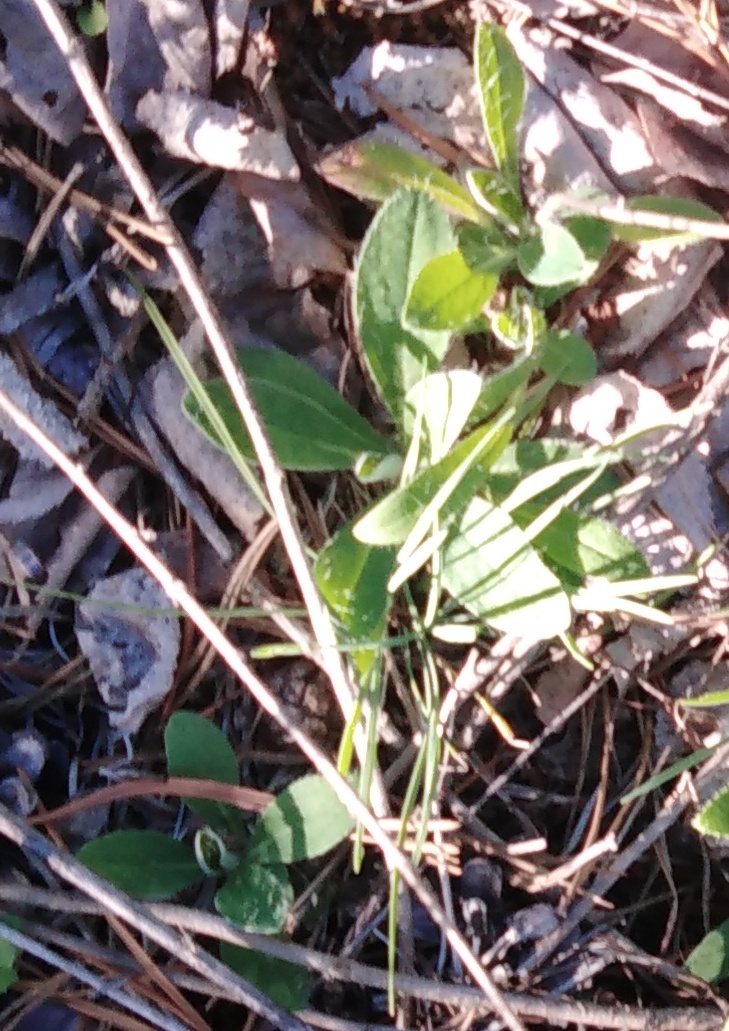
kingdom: Plantae
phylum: Tracheophyta
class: Magnoliopsida
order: Asterales
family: Asteraceae
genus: Pilosella
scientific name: Pilosella officinarum
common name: Mouse-ear hawkweed
